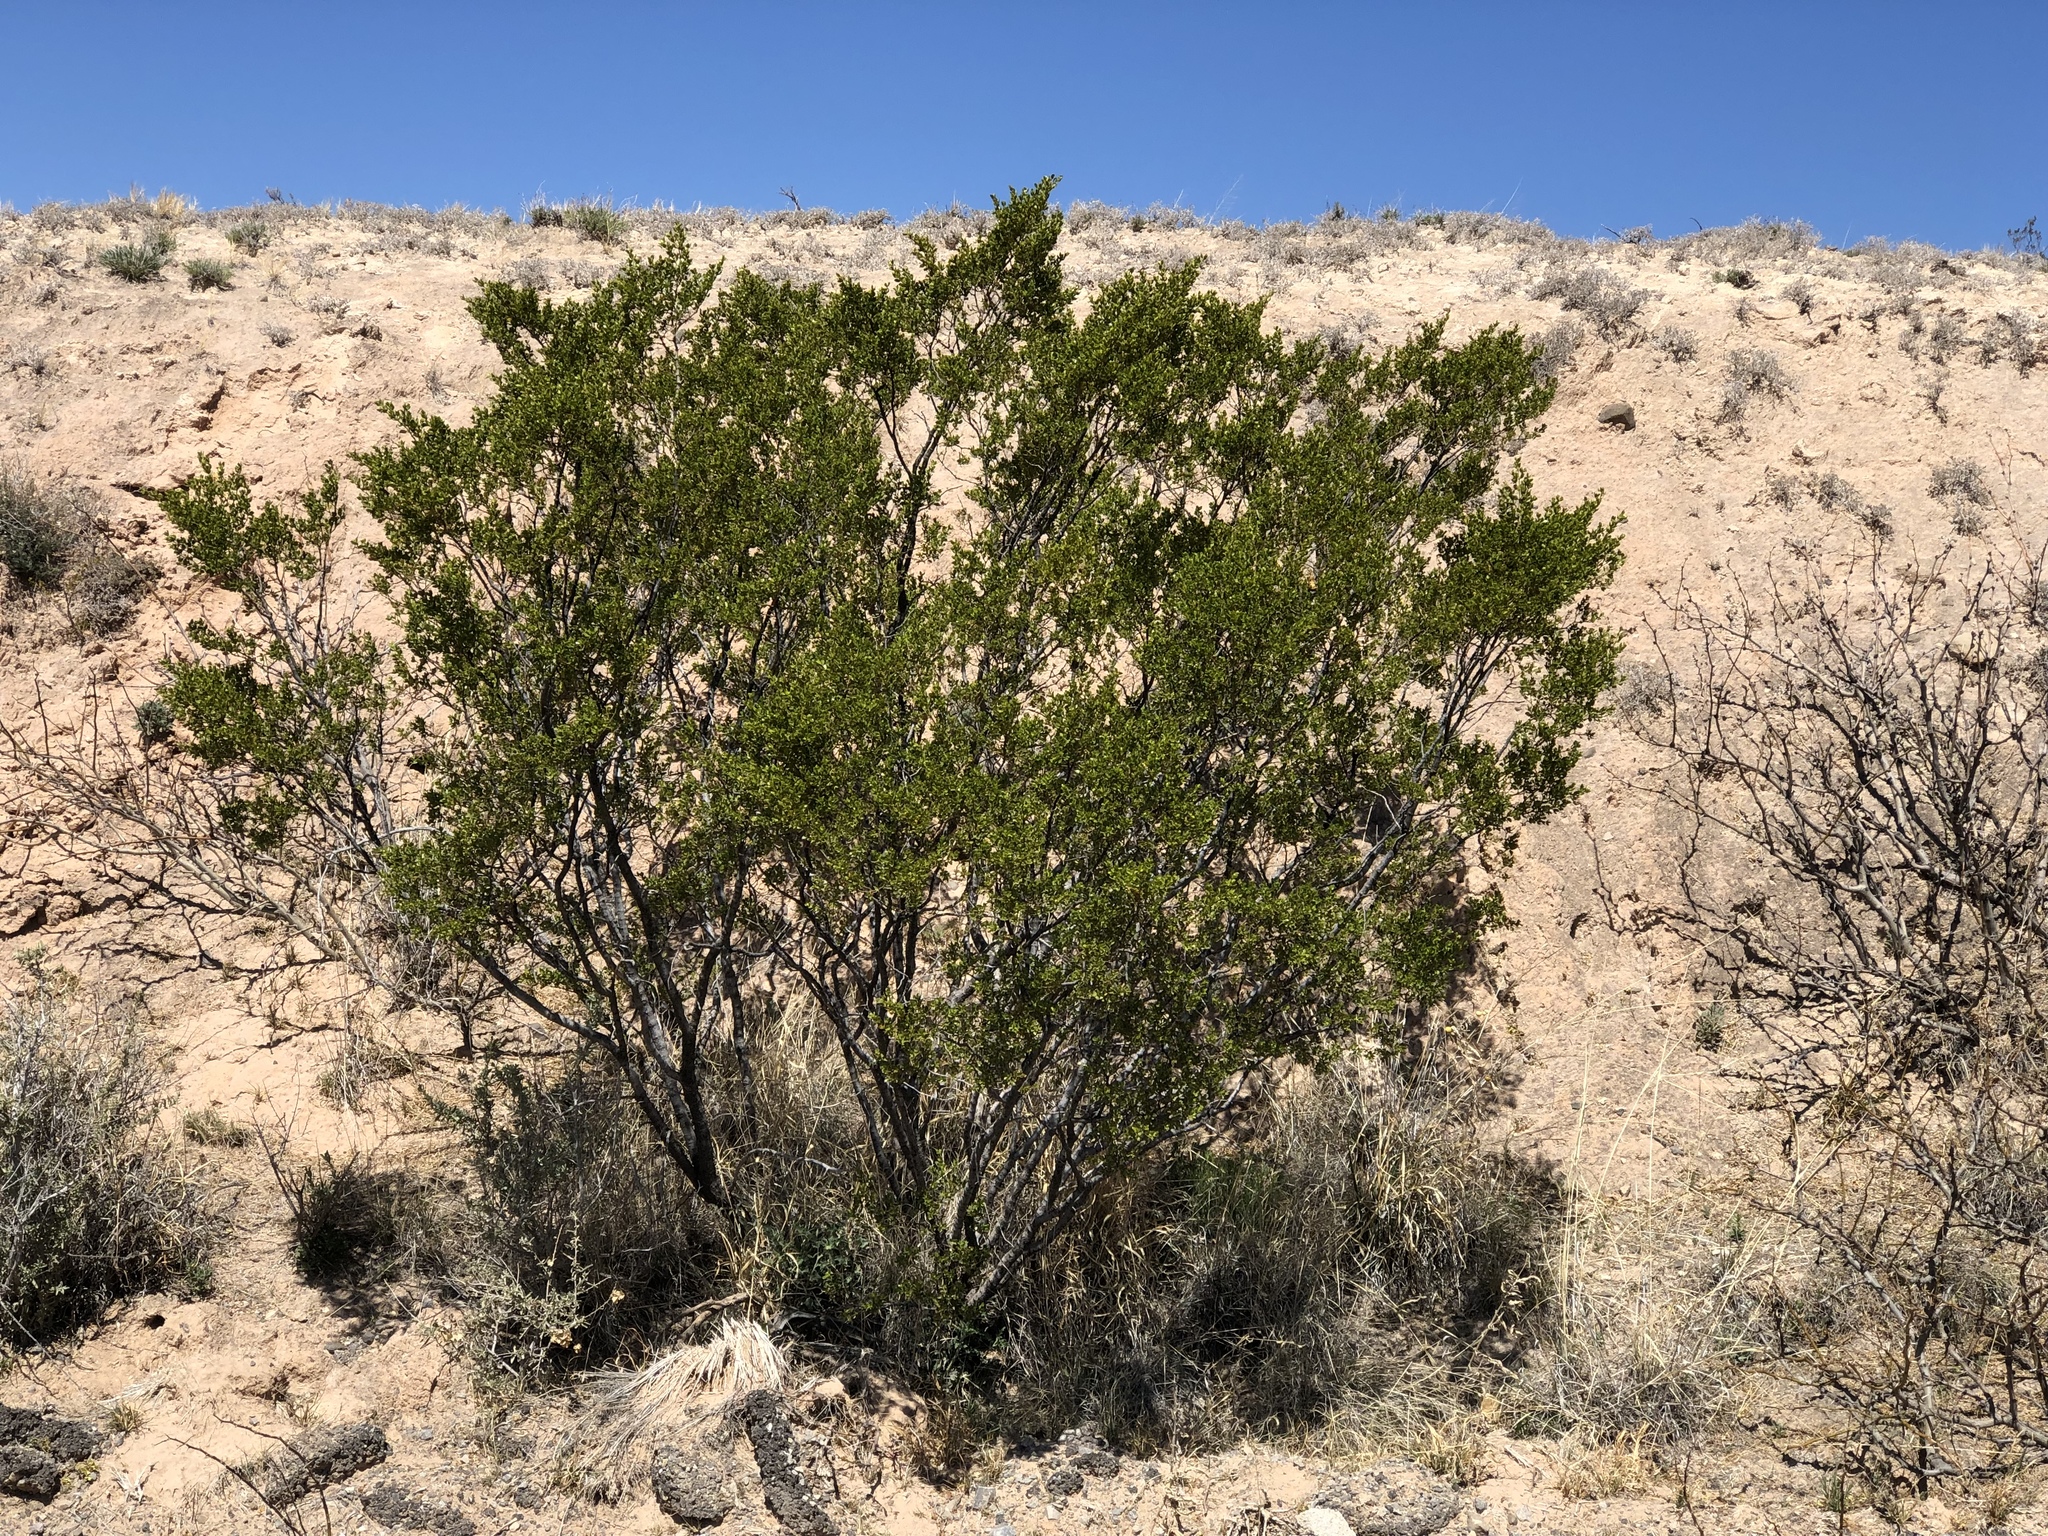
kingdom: Plantae
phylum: Tracheophyta
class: Magnoliopsida
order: Zygophyllales
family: Zygophyllaceae
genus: Larrea
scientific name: Larrea tridentata
